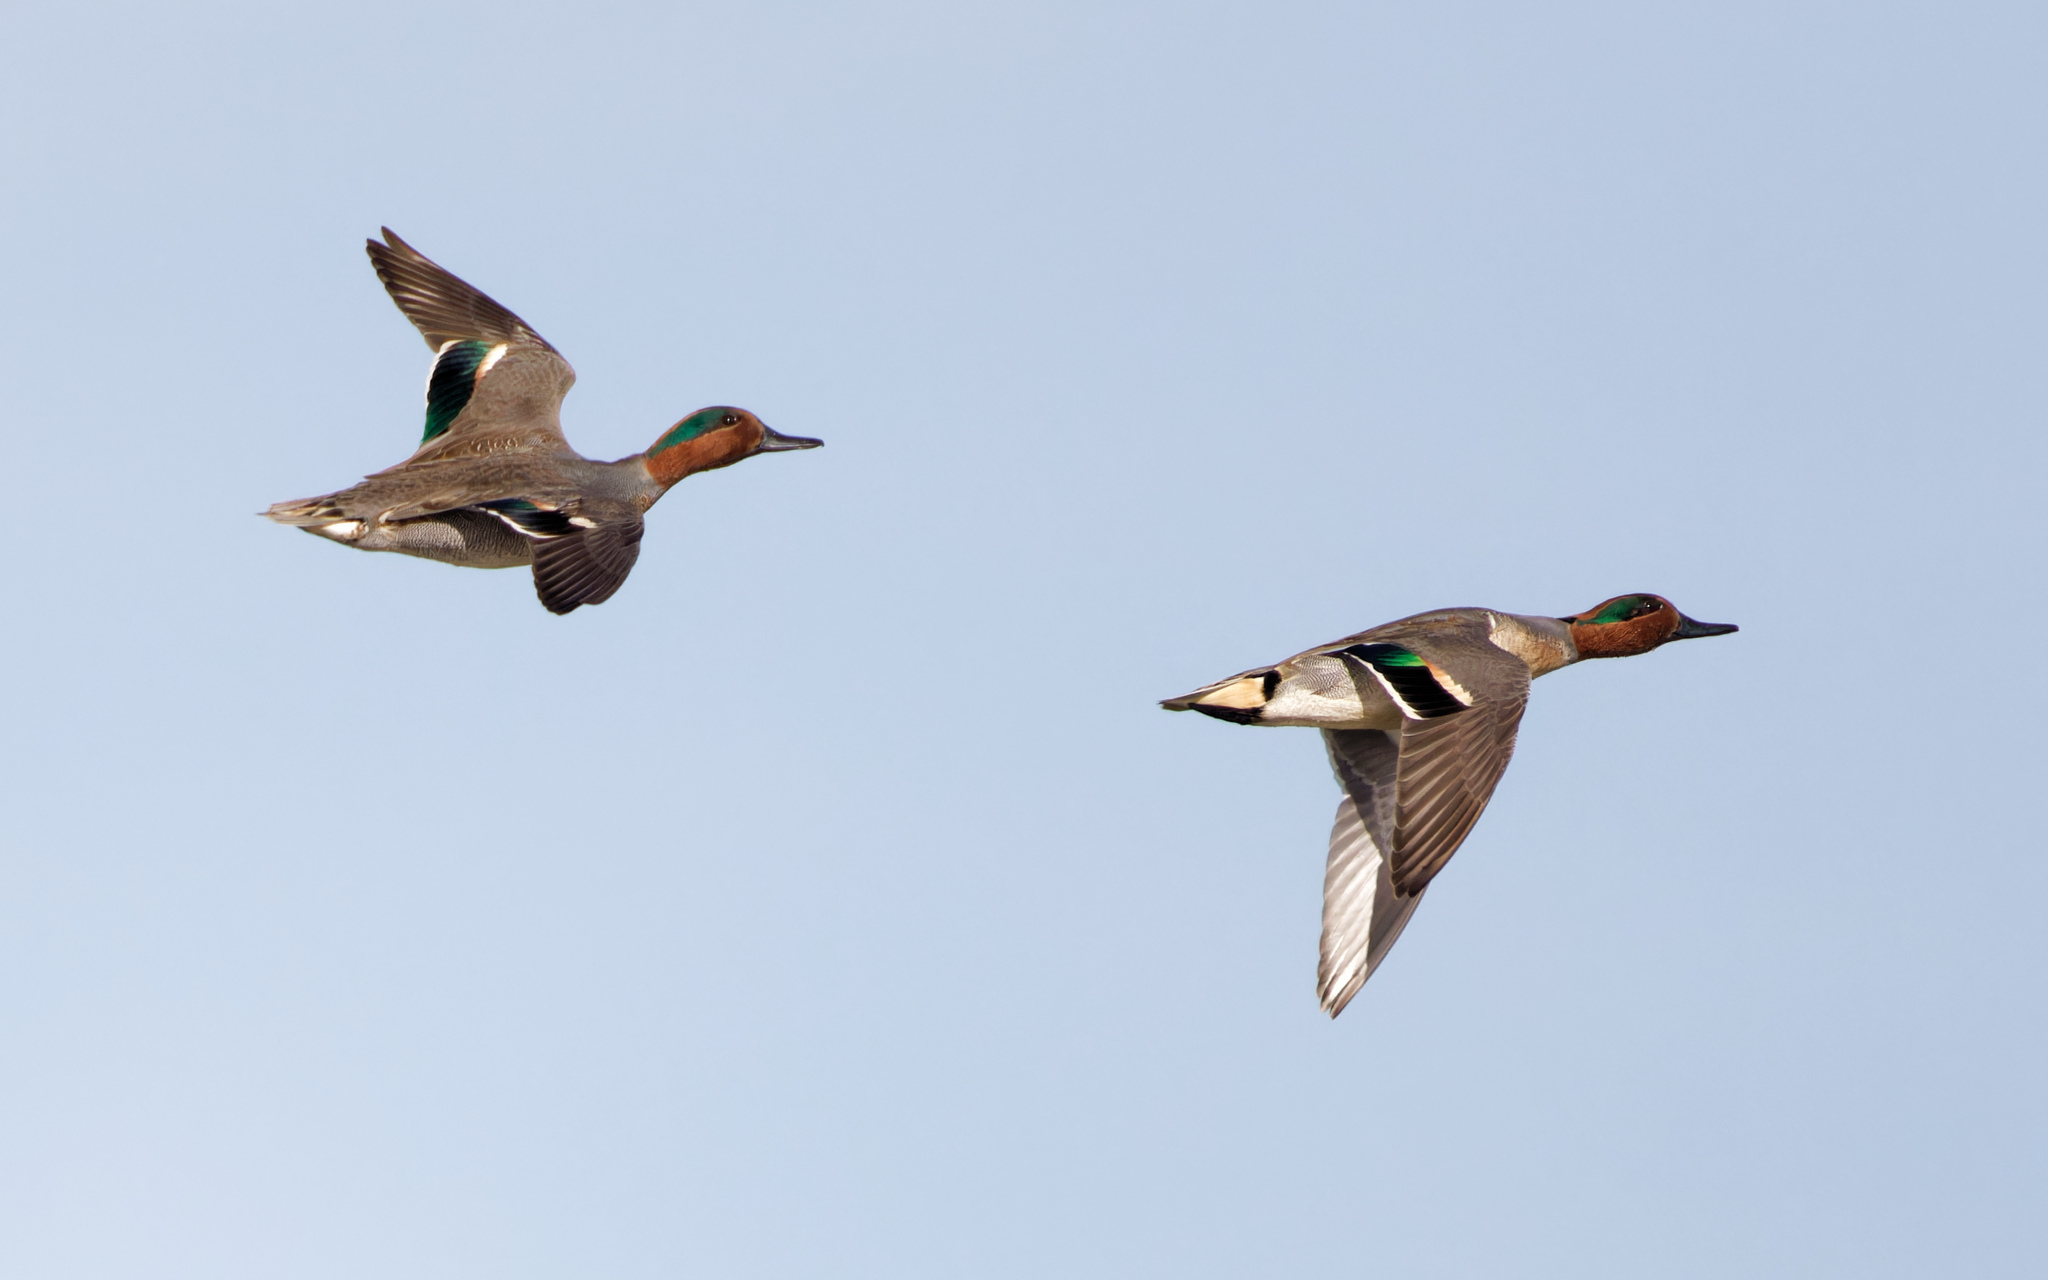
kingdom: Animalia
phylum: Chordata
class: Aves
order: Anseriformes
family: Anatidae
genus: Anas
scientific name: Anas crecca
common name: Eurasian teal
